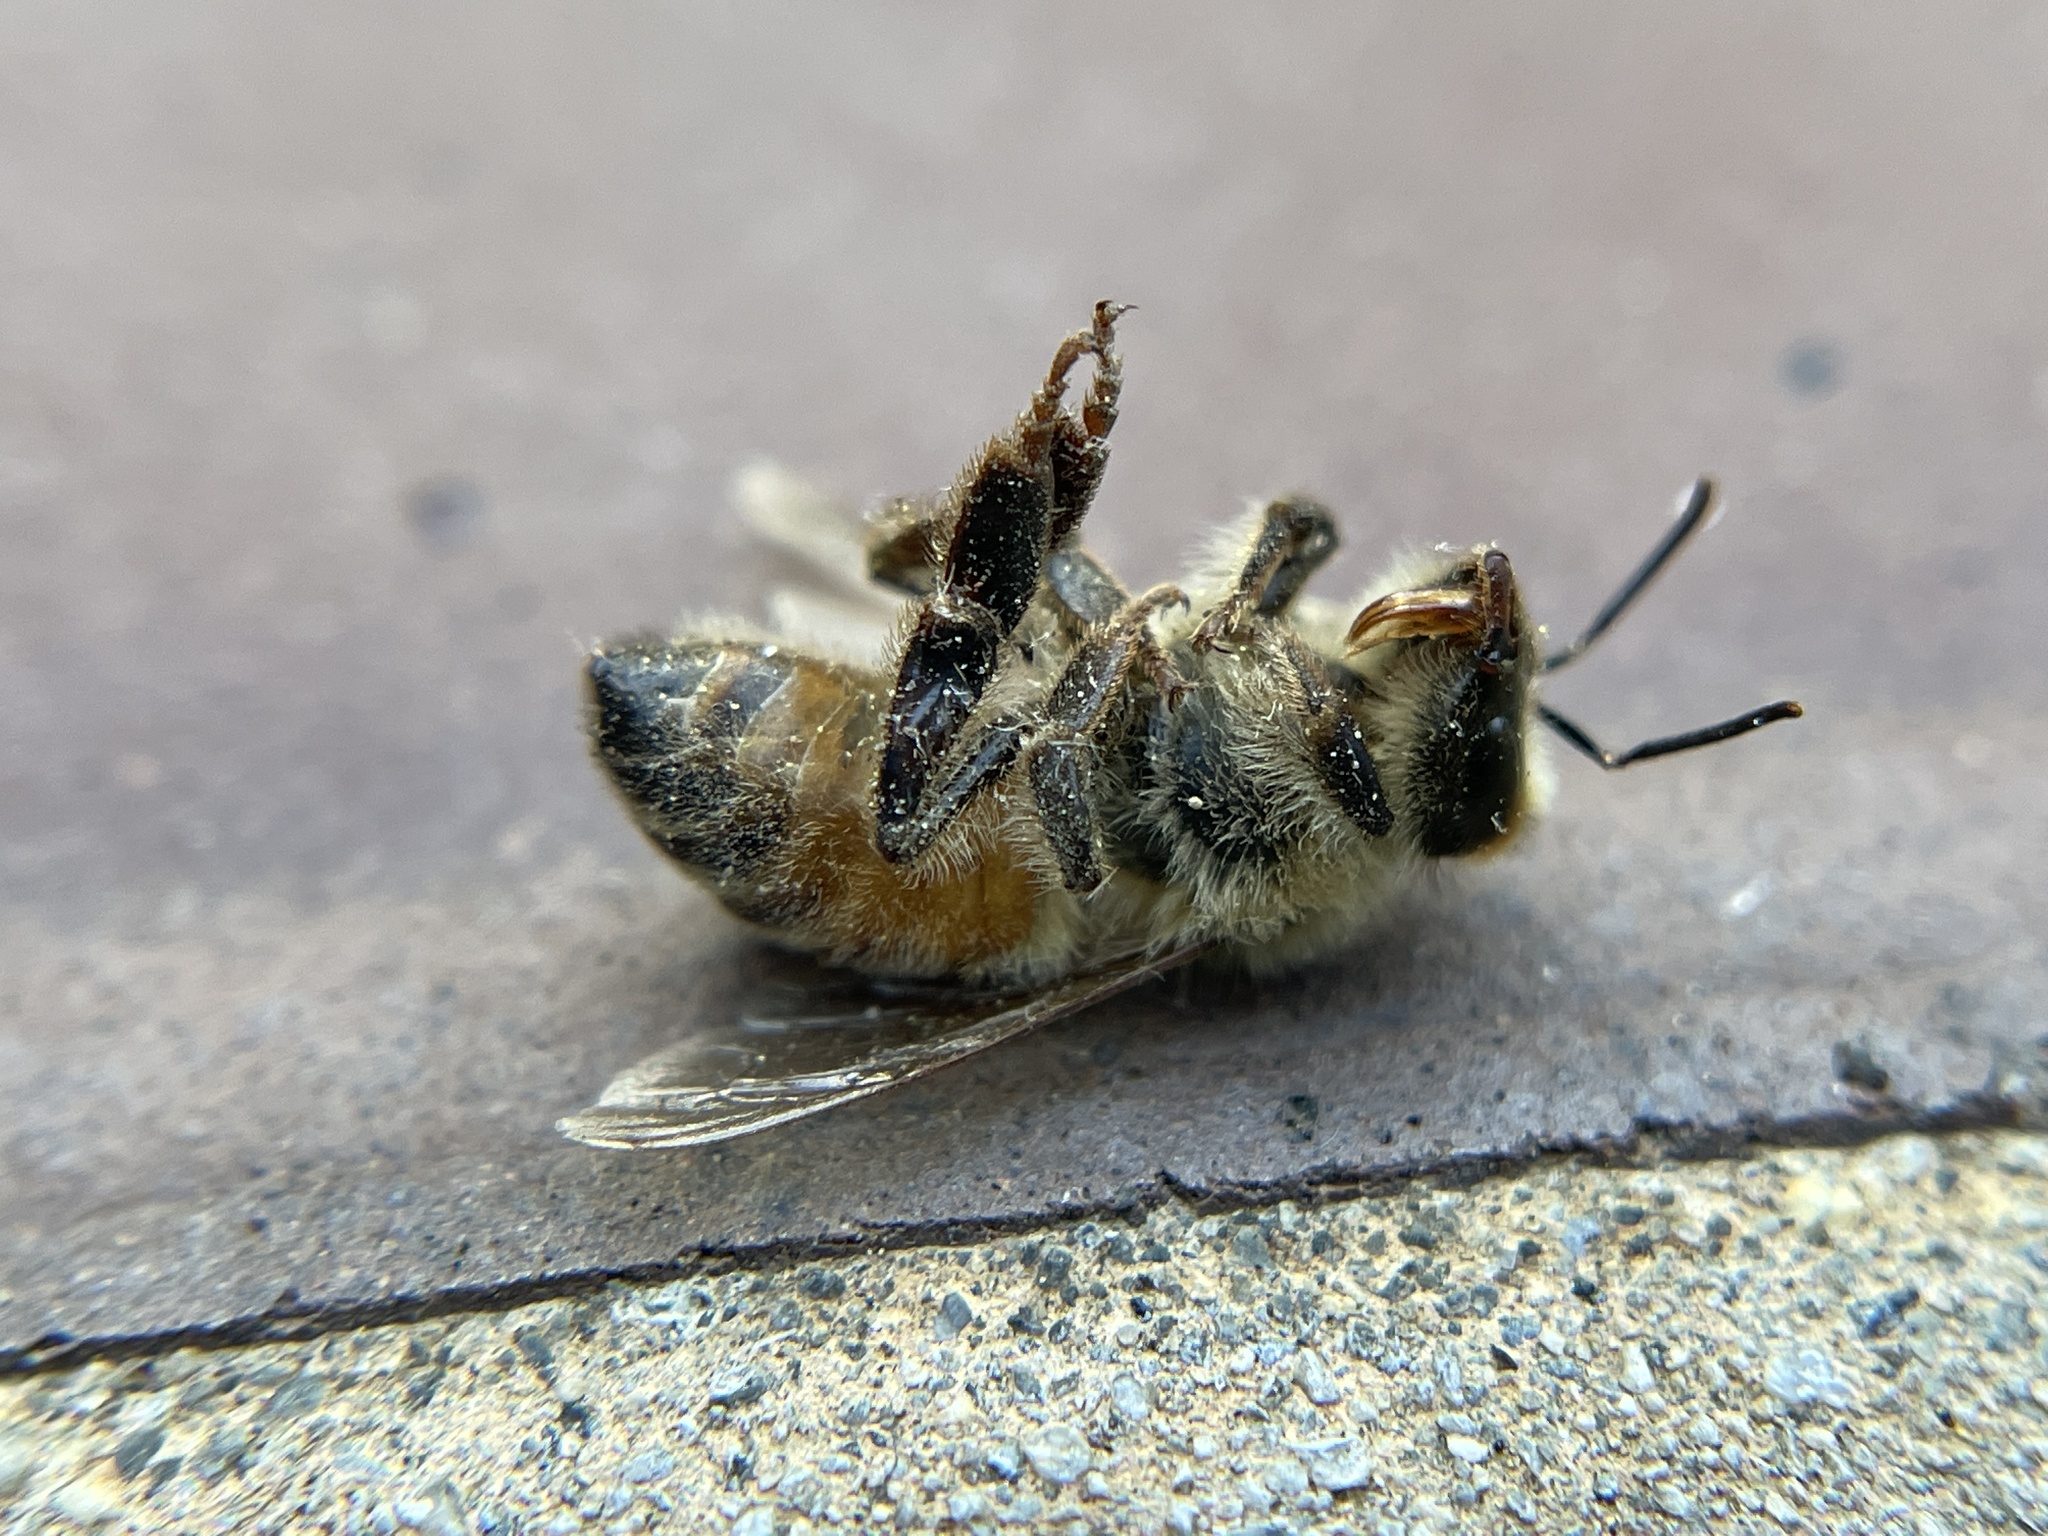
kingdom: Animalia
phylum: Arthropoda
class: Insecta
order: Hymenoptera
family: Apidae
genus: Apis
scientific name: Apis mellifera
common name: Honey bee
